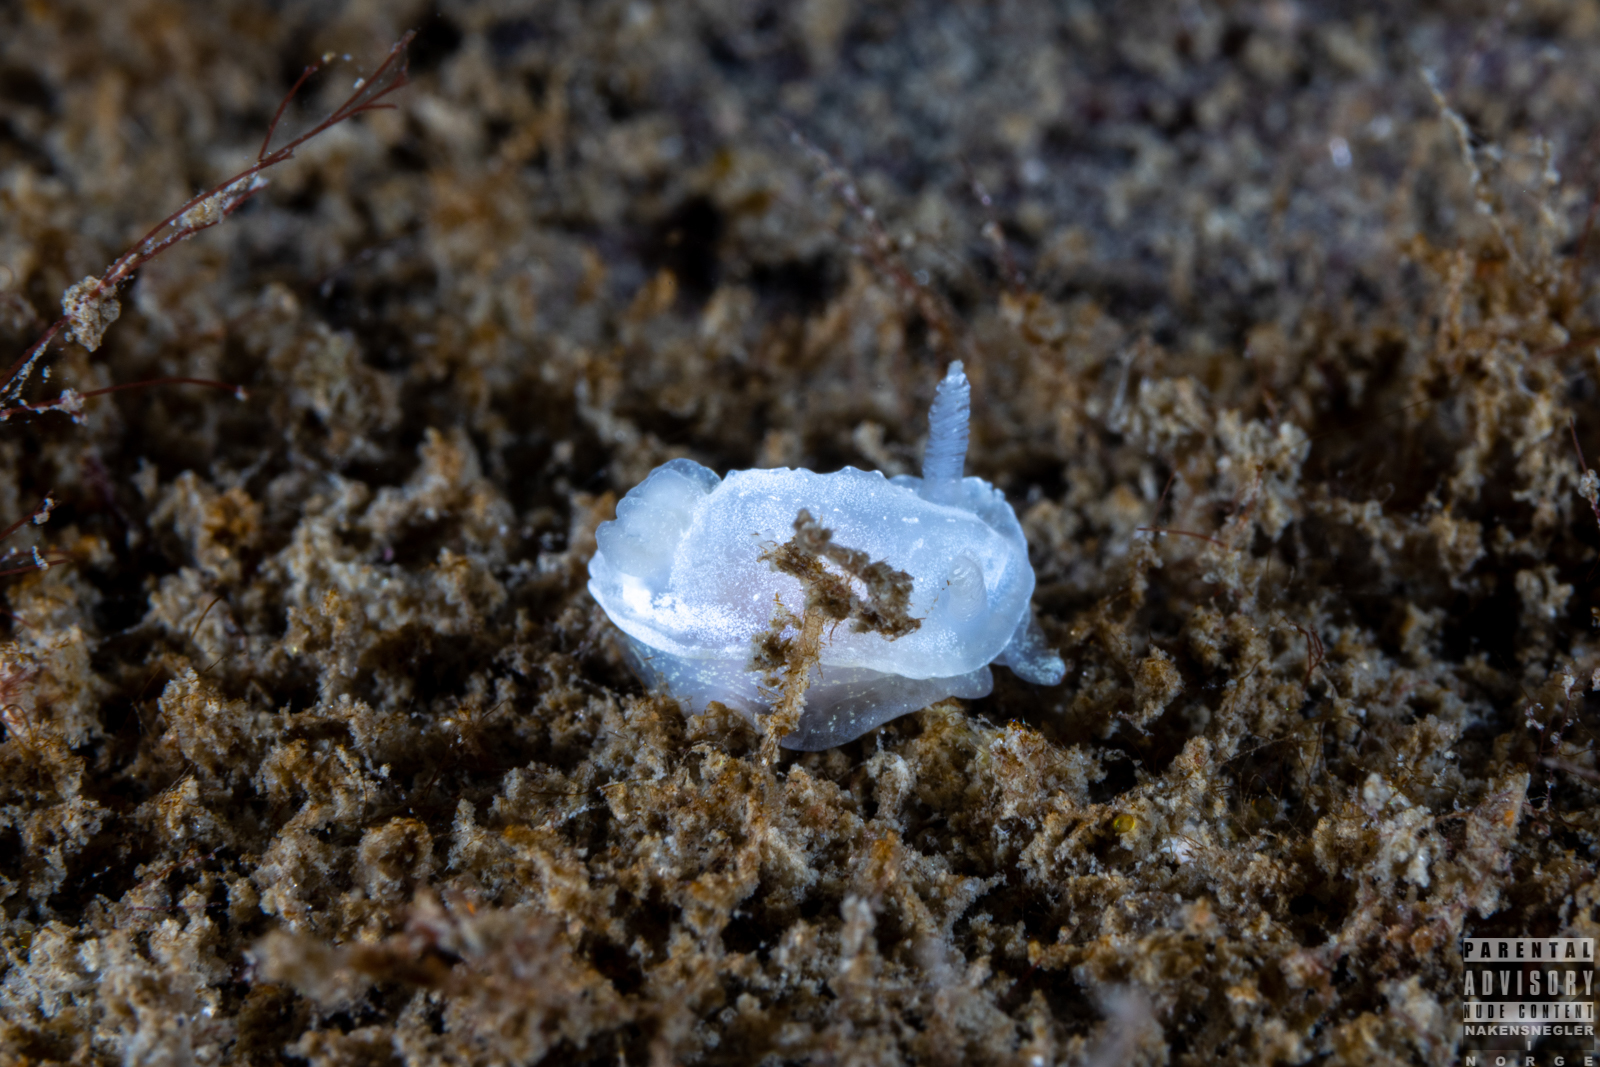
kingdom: Animalia
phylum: Mollusca
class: Gastropoda
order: Nudibranchia
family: Goniodorididae
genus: Okenia
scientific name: Okenia
